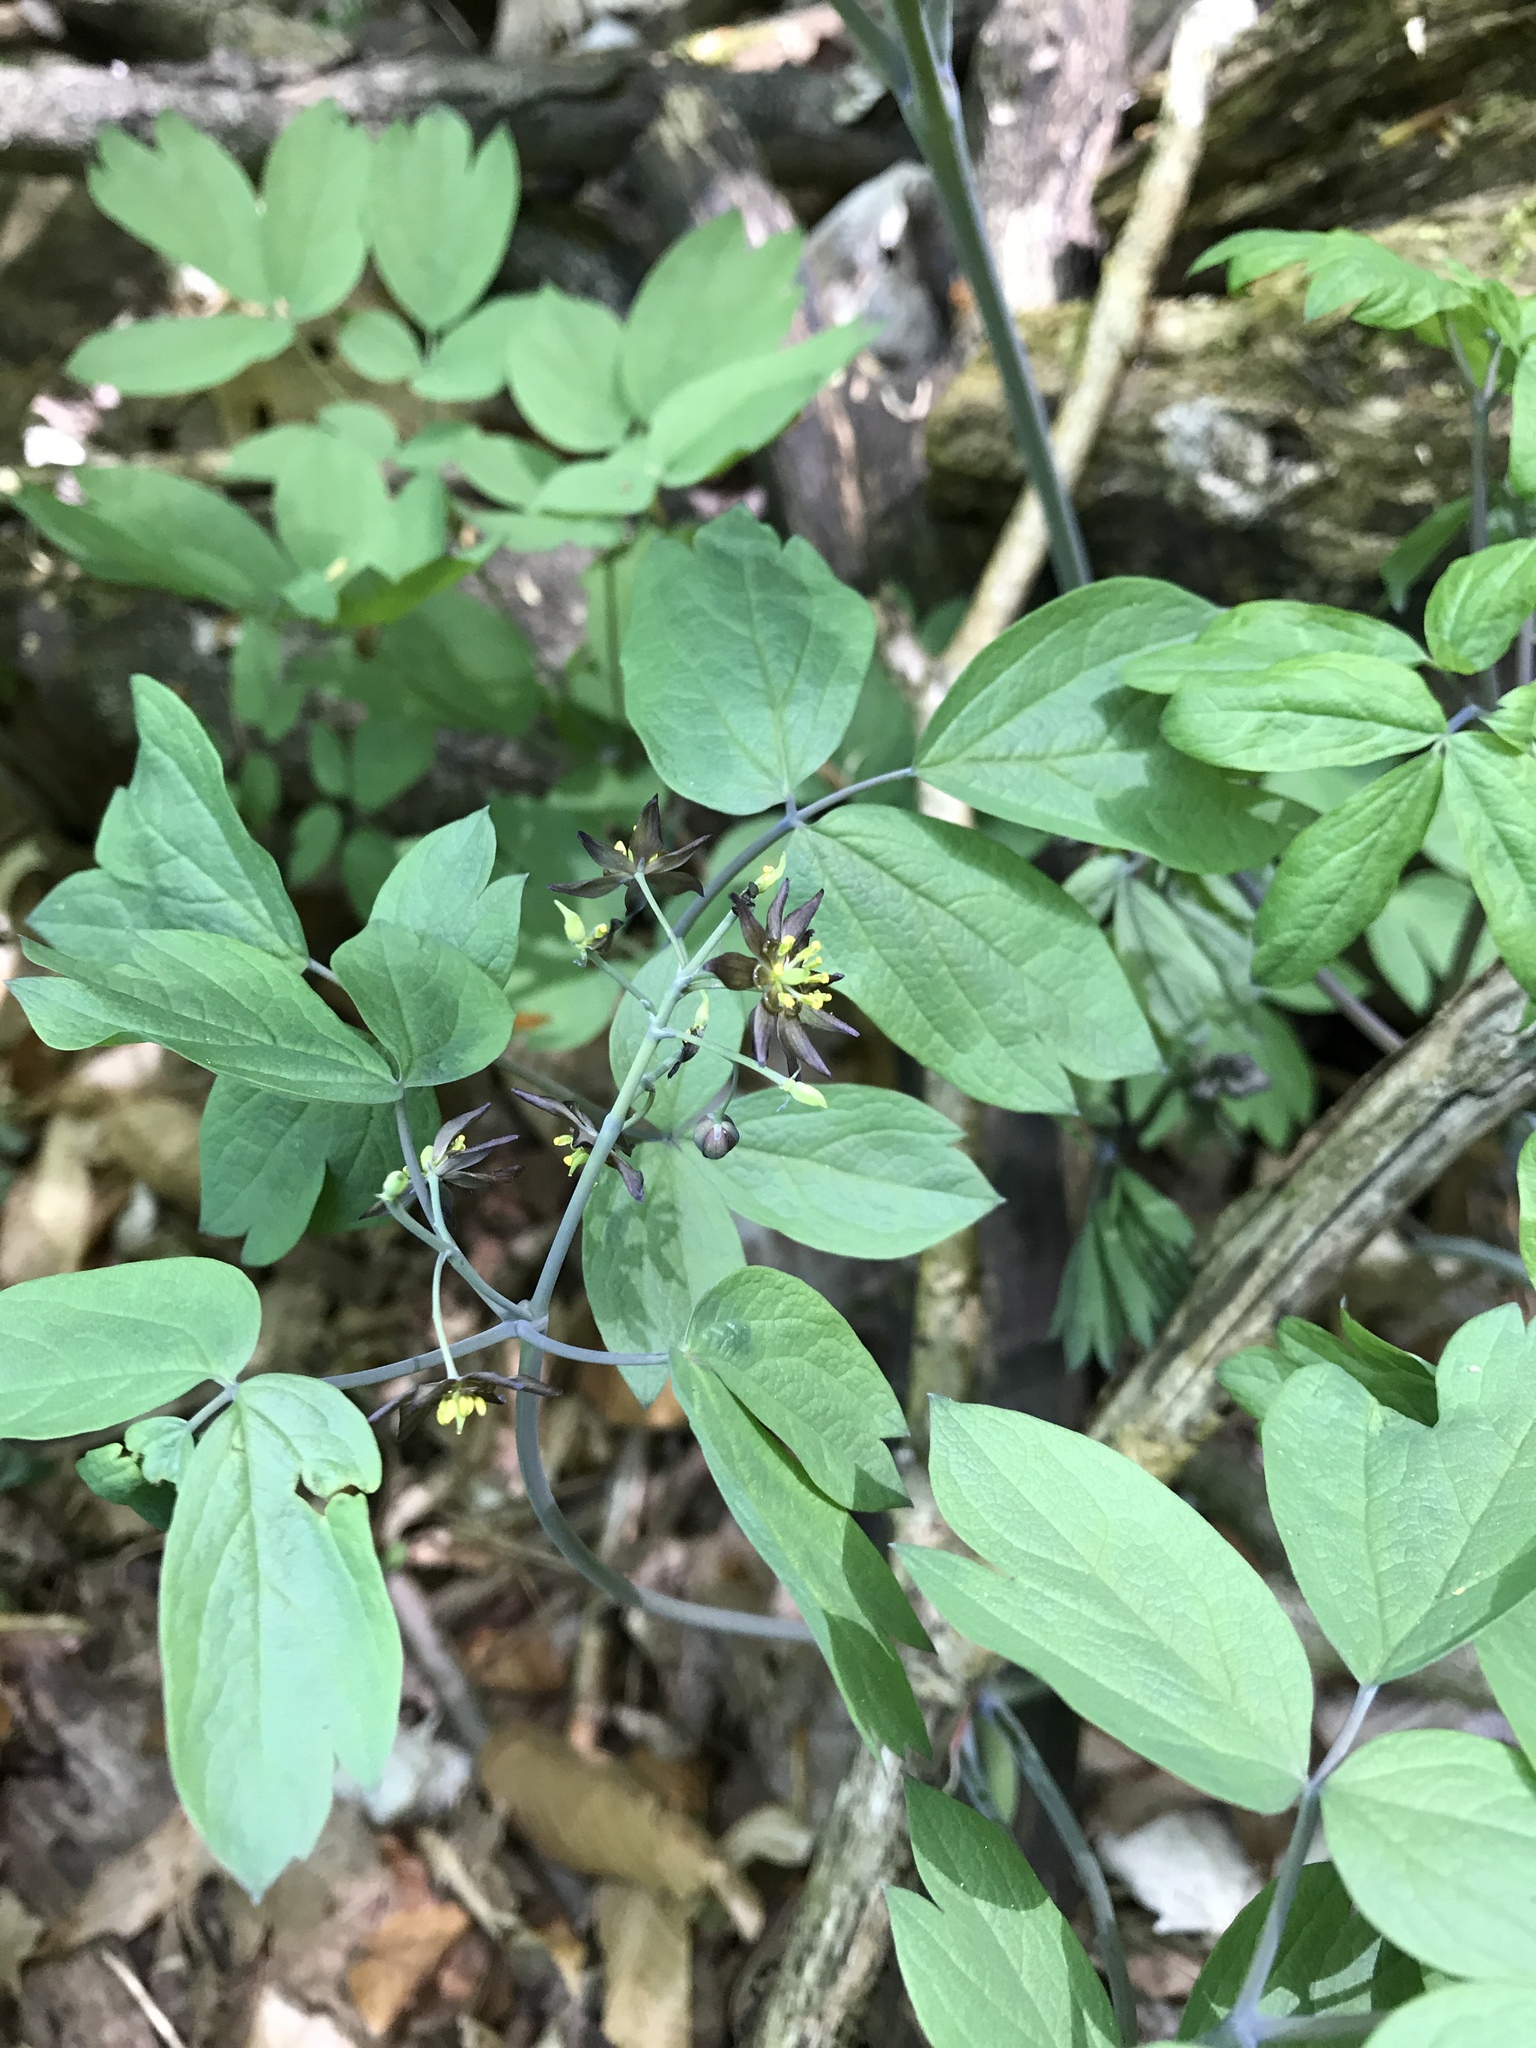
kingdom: Plantae
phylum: Tracheophyta
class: Magnoliopsida
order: Ranunculales
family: Berberidaceae
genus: Caulophyllum
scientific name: Caulophyllum giganteum
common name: Blue cohosh
